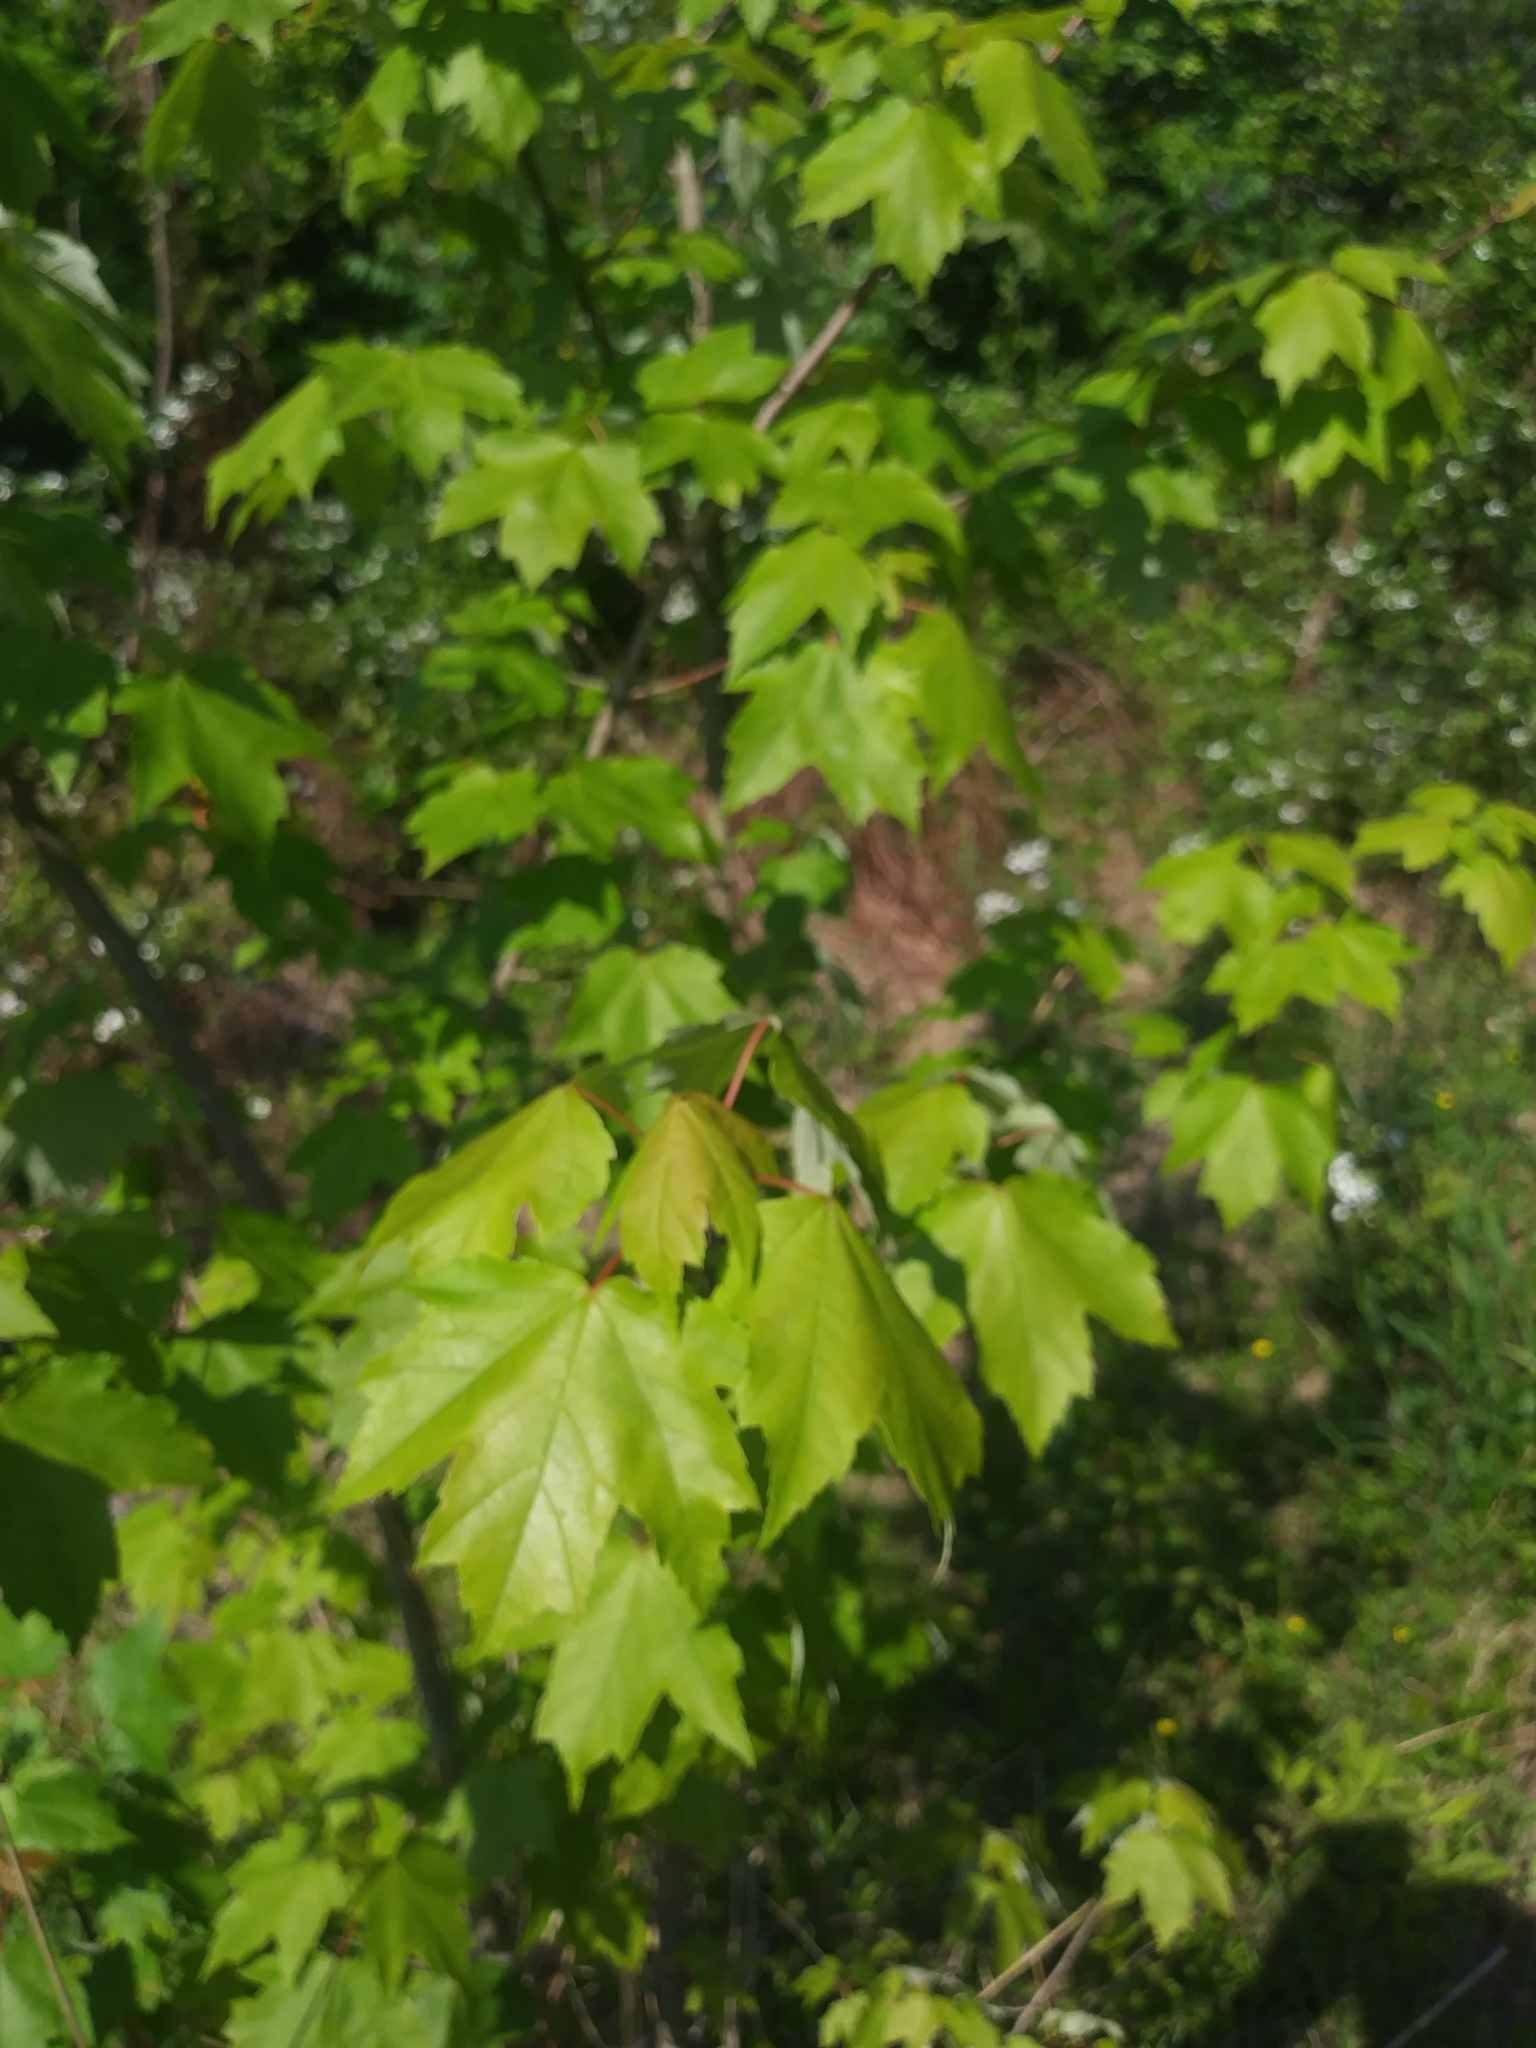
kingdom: Plantae
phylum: Tracheophyta
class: Magnoliopsida
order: Sapindales
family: Sapindaceae
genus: Acer
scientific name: Acer rubrum
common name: Red maple
